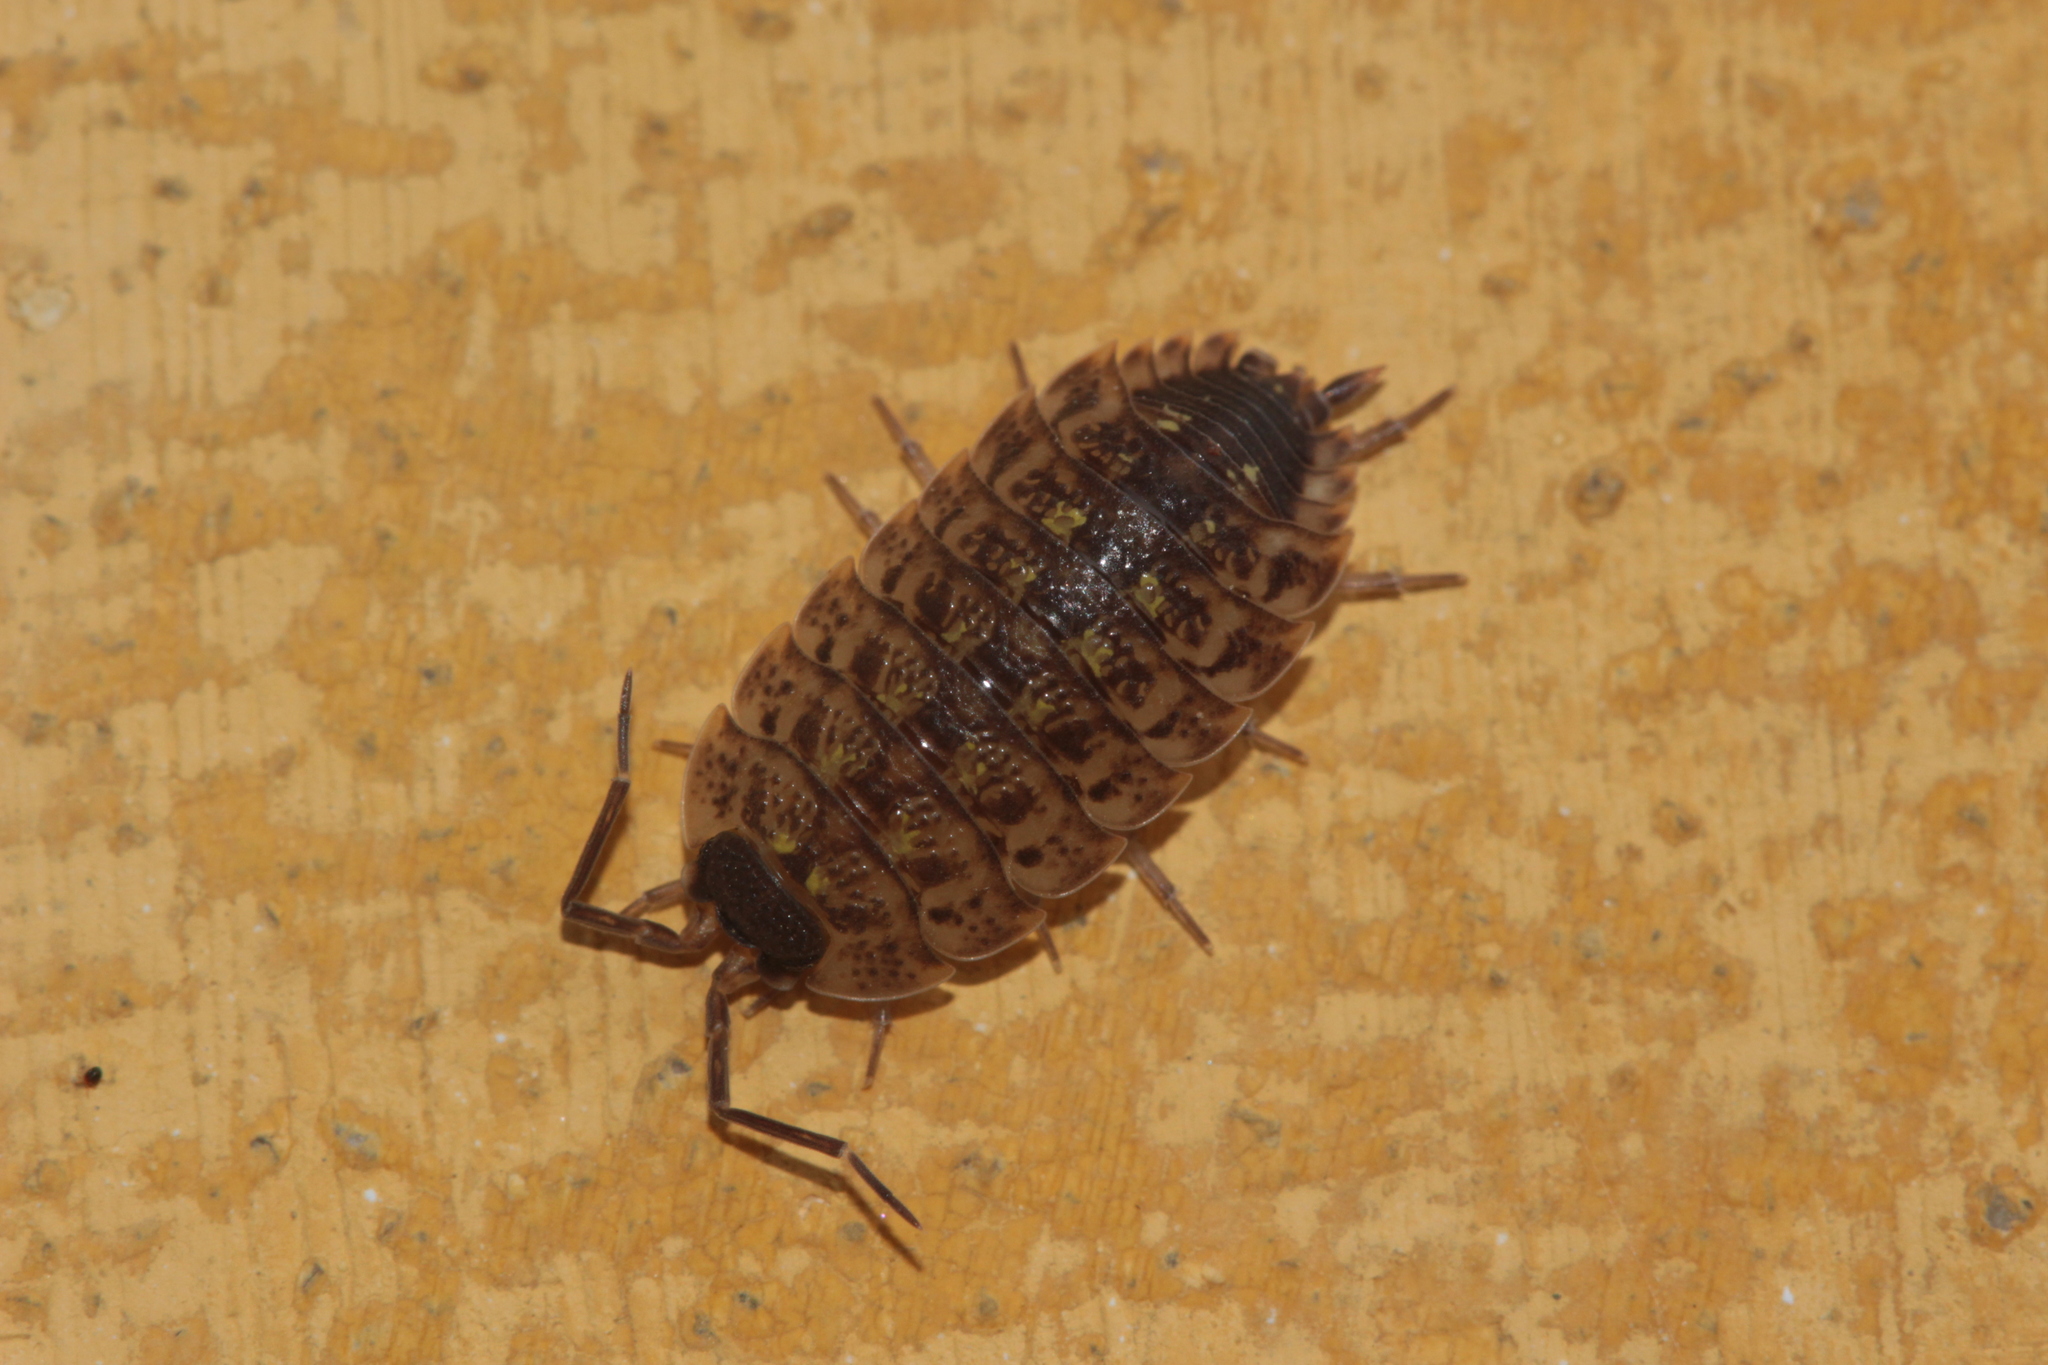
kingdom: Animalia
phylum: Arthropoda
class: Malacostraca
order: Isopoda
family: Porcellionidae
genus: Porcellio
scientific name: Porcellio spinicornis
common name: Painted woodlouse
